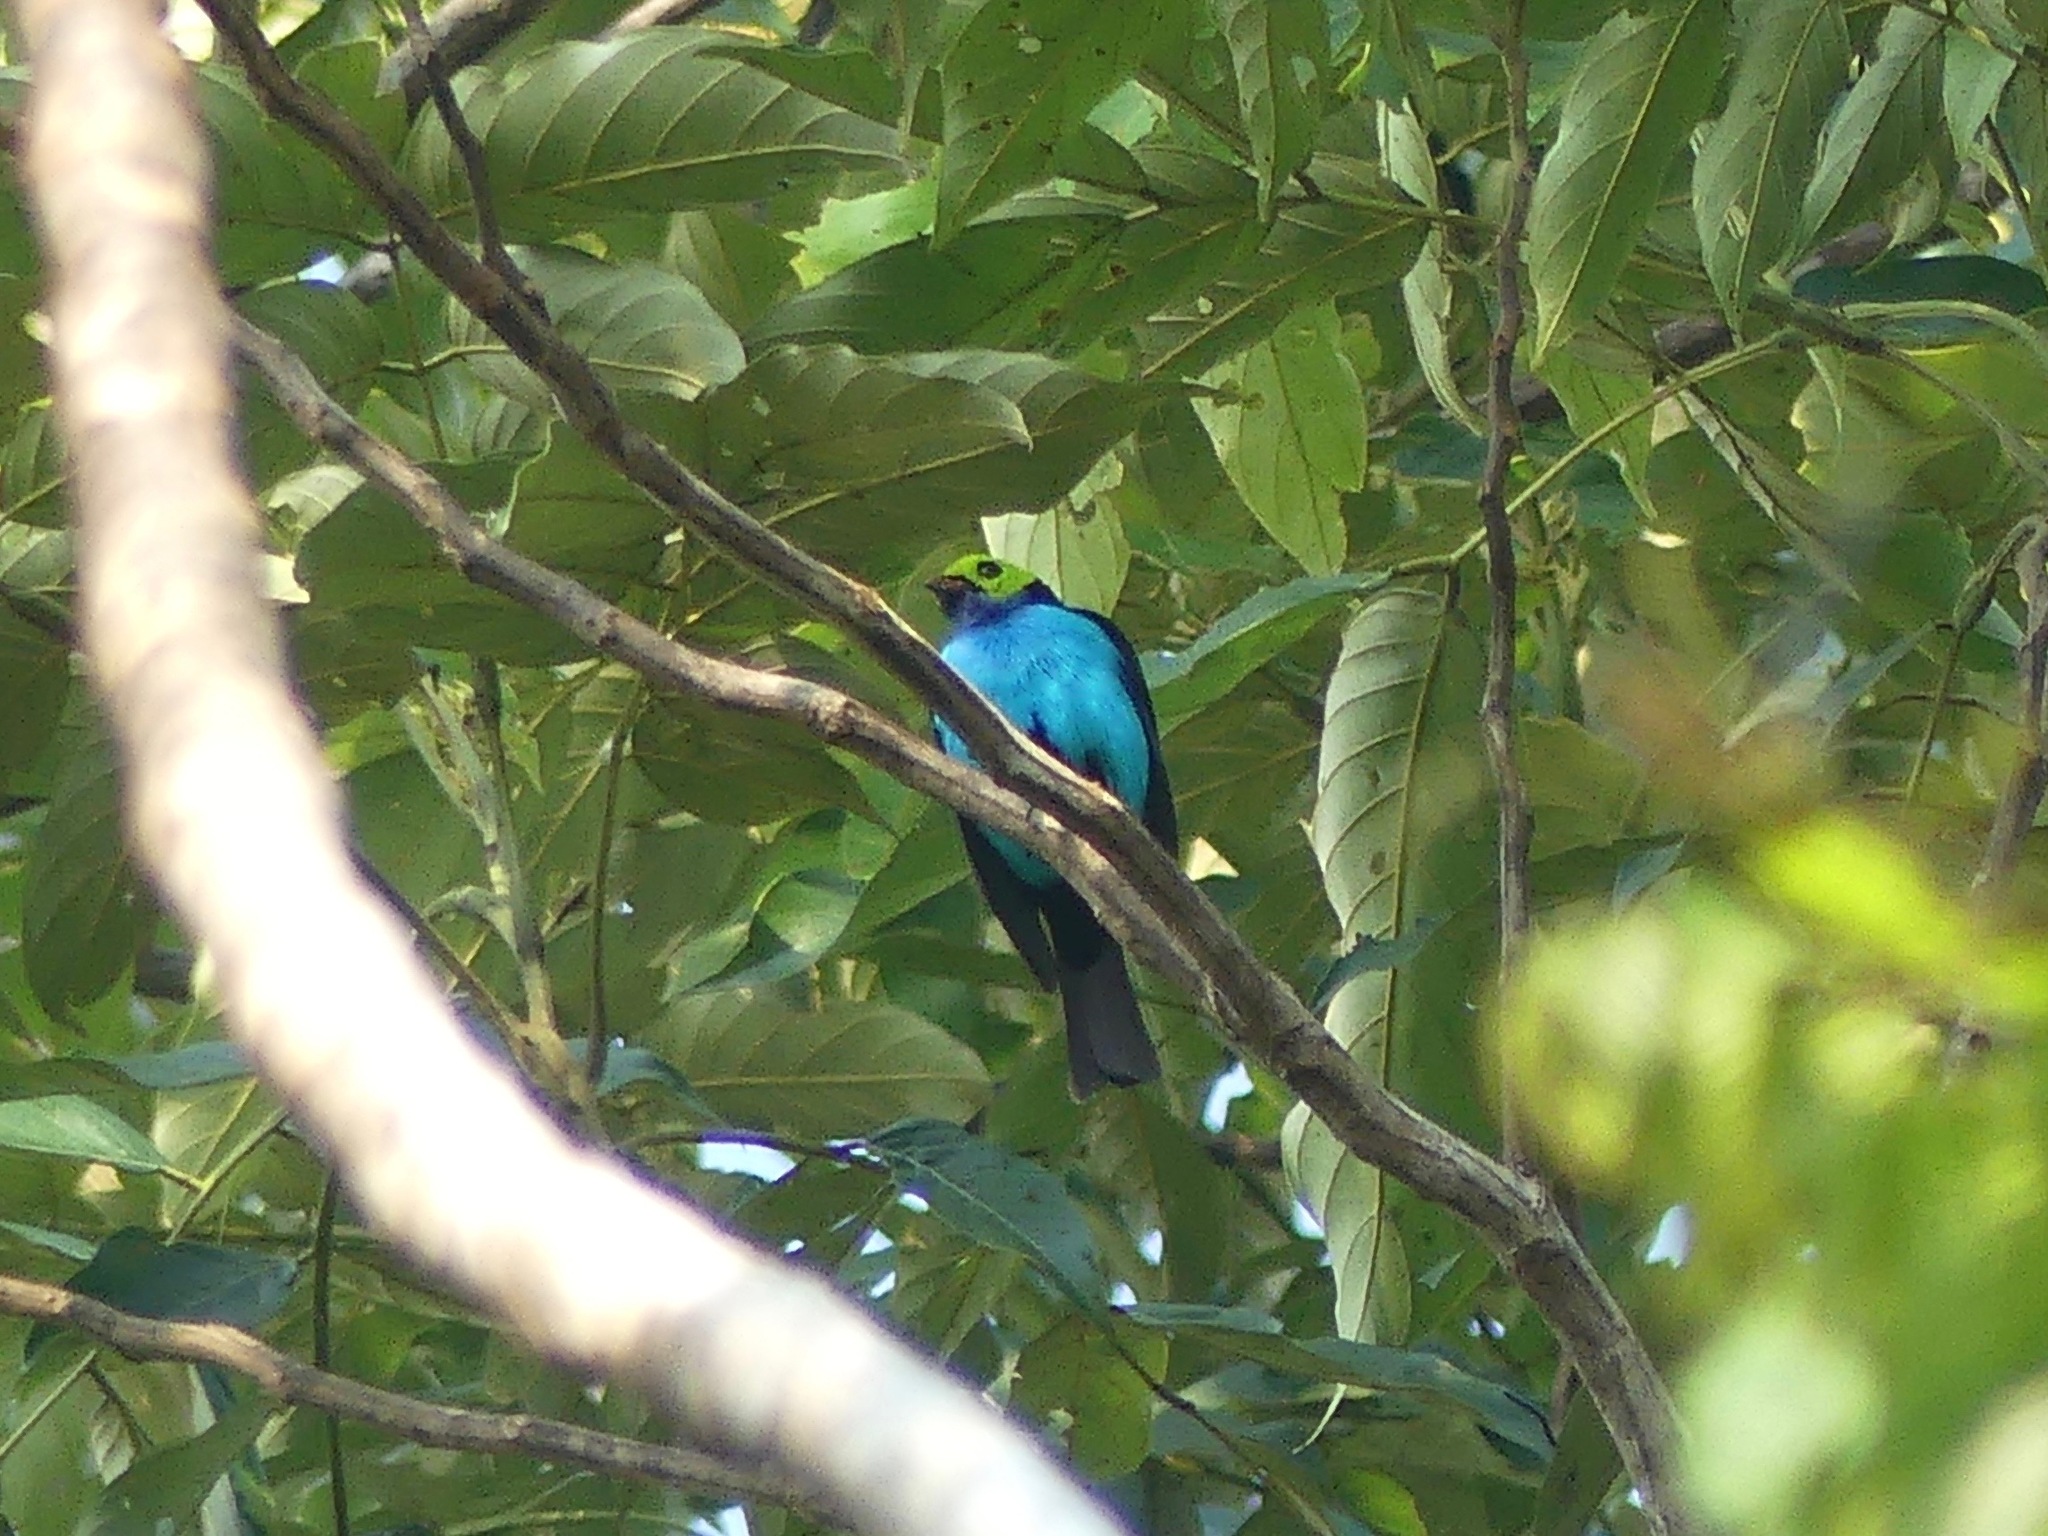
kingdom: Animalia
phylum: Chordata
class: Aves
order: Passeriformes
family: Thraupidae
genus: Tangara
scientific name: Tangara chilensis
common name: Paradise tanager
